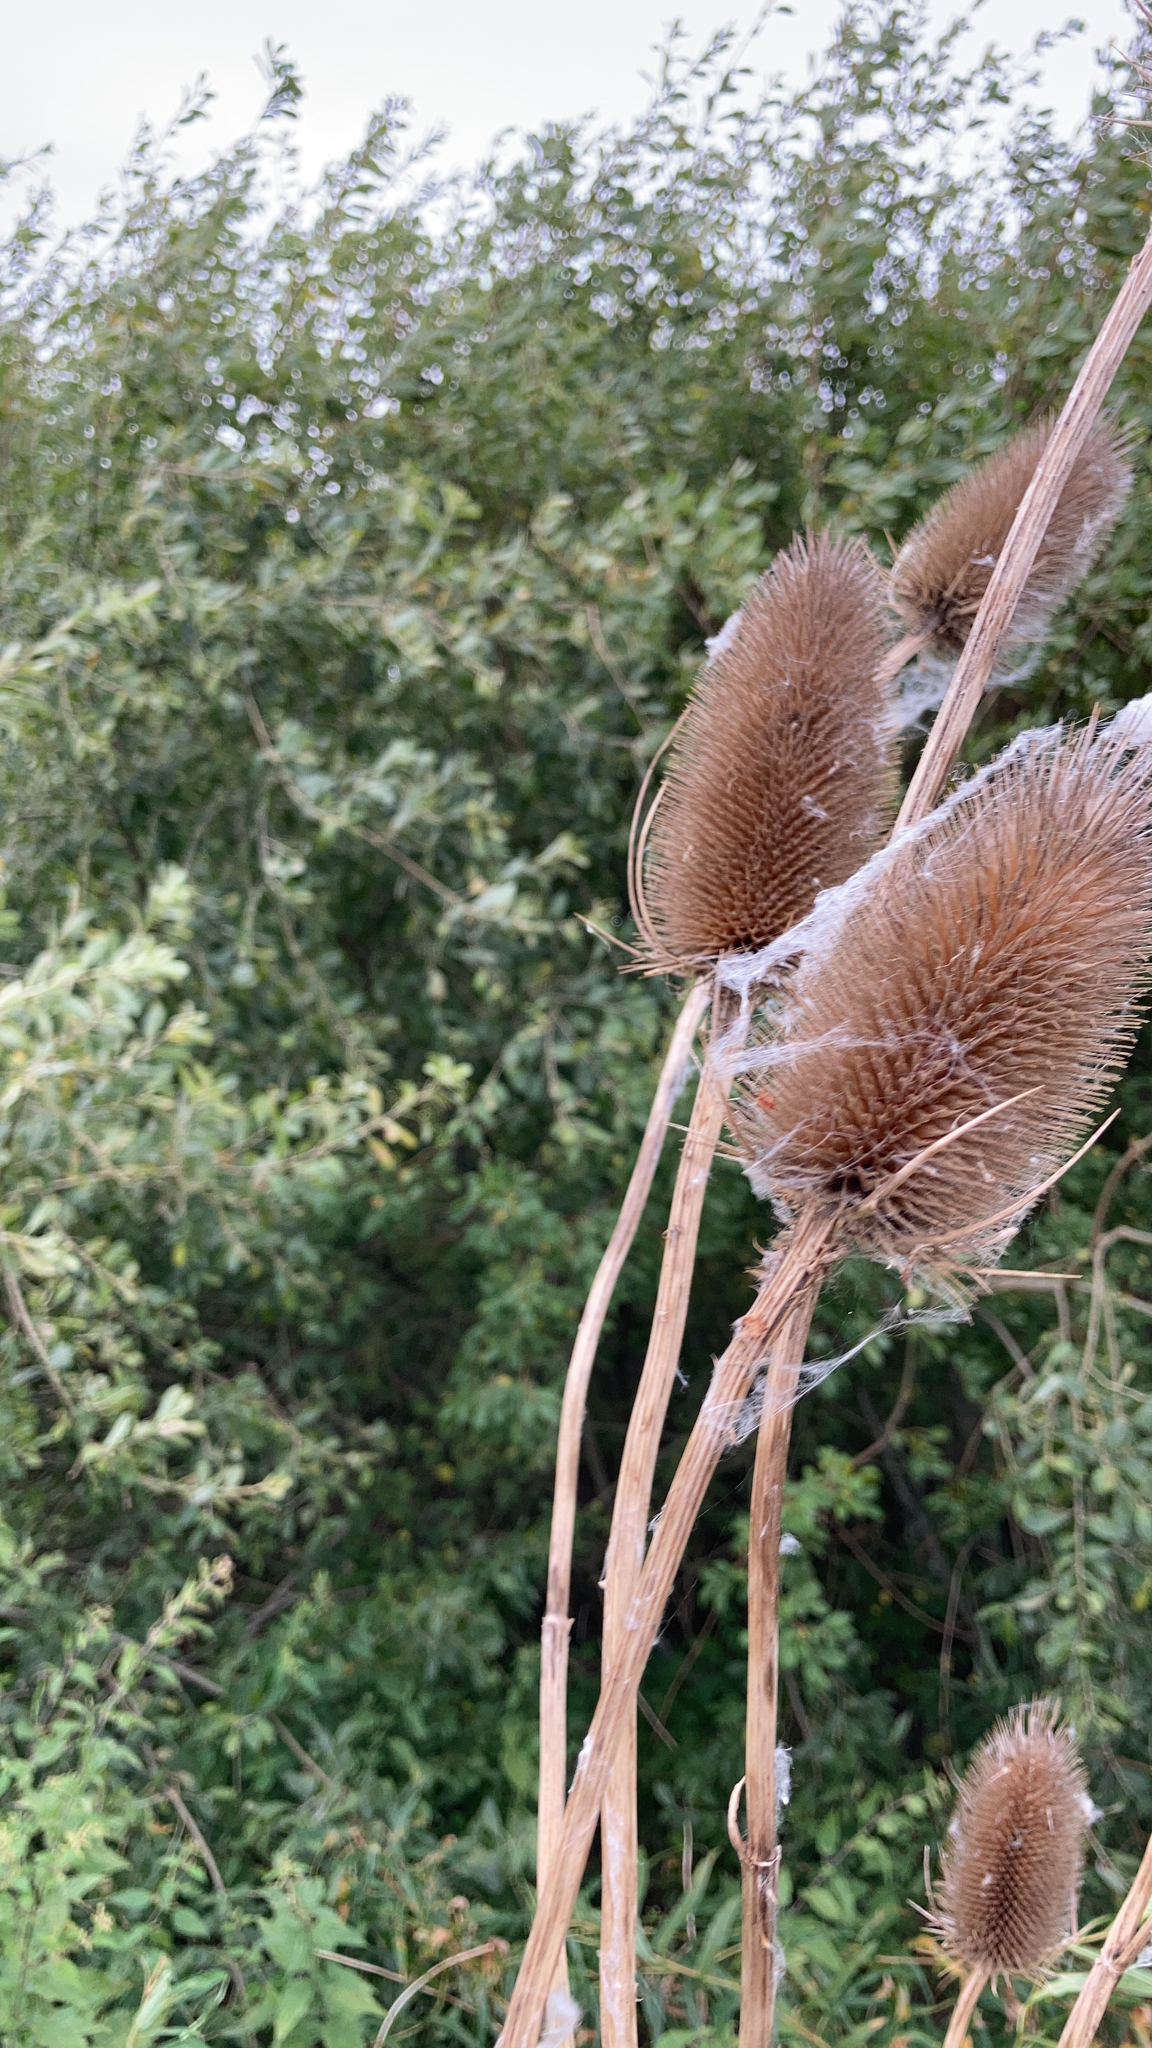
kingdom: Plantae
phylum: Tracheophyta
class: Magnoliopsida
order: Dipsacales
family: Caprifoliaceae
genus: Dipsacus
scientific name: Dipsacus fullonum
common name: Teasel
